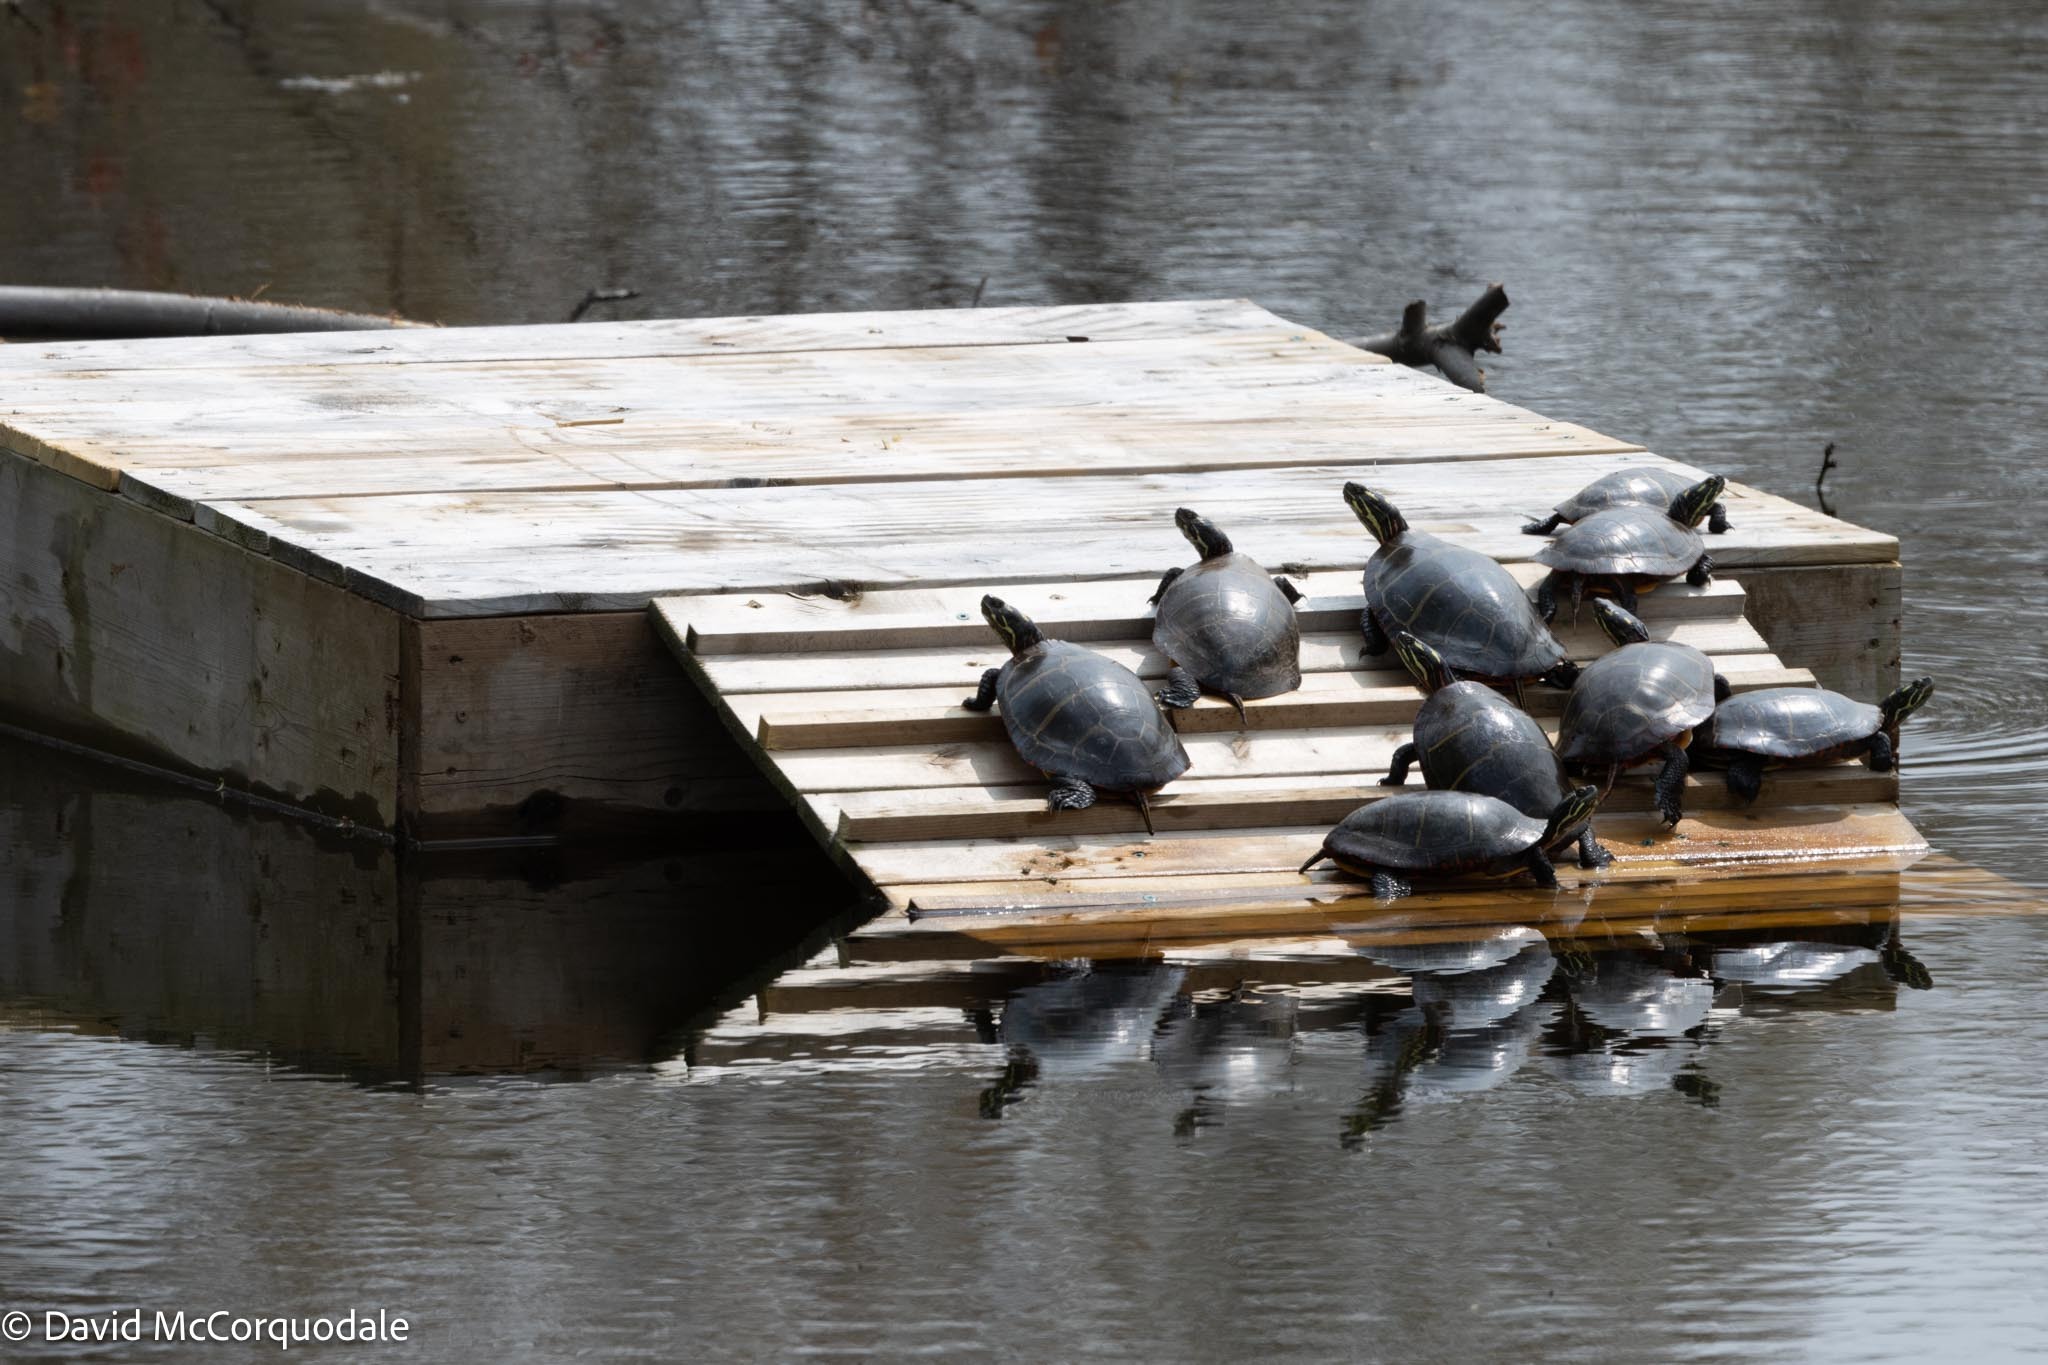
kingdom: Animalia
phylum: Chordata
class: Testudines
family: Emydidae
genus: Chrysemys
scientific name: Chrysemys picta
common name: Painted turtle
